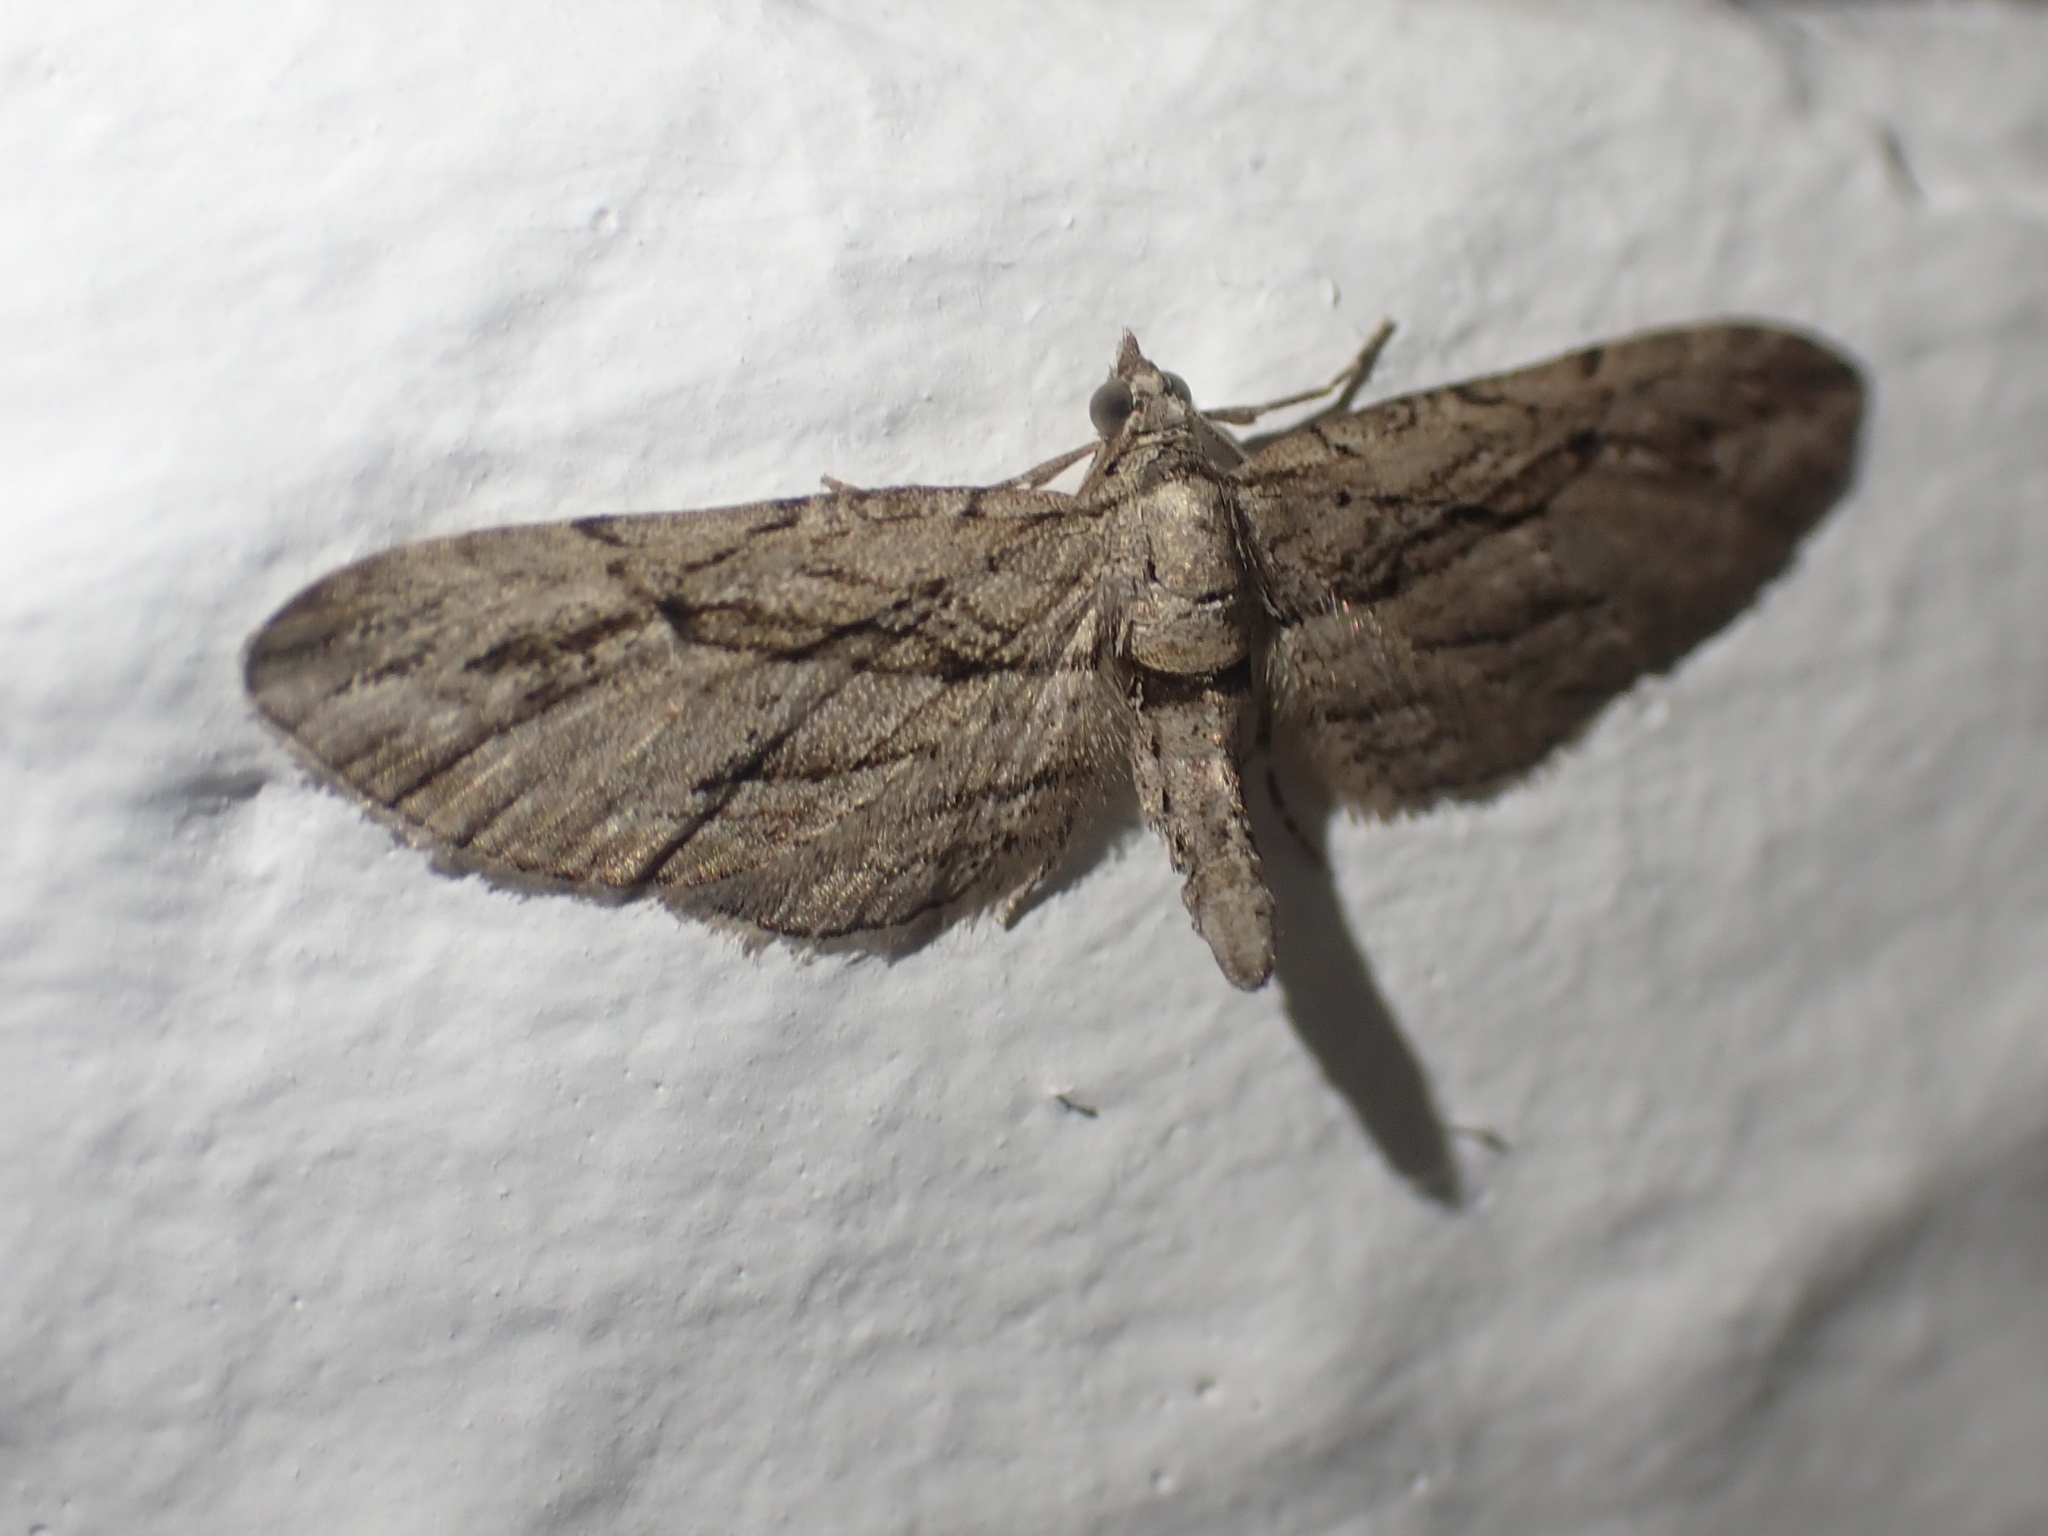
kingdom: Animalia
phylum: Arthropoda
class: Insecta
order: Lepidoptera
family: Geometridae
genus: Eupithecia
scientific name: Eupithecia phoeniceata
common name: Cypress pug
